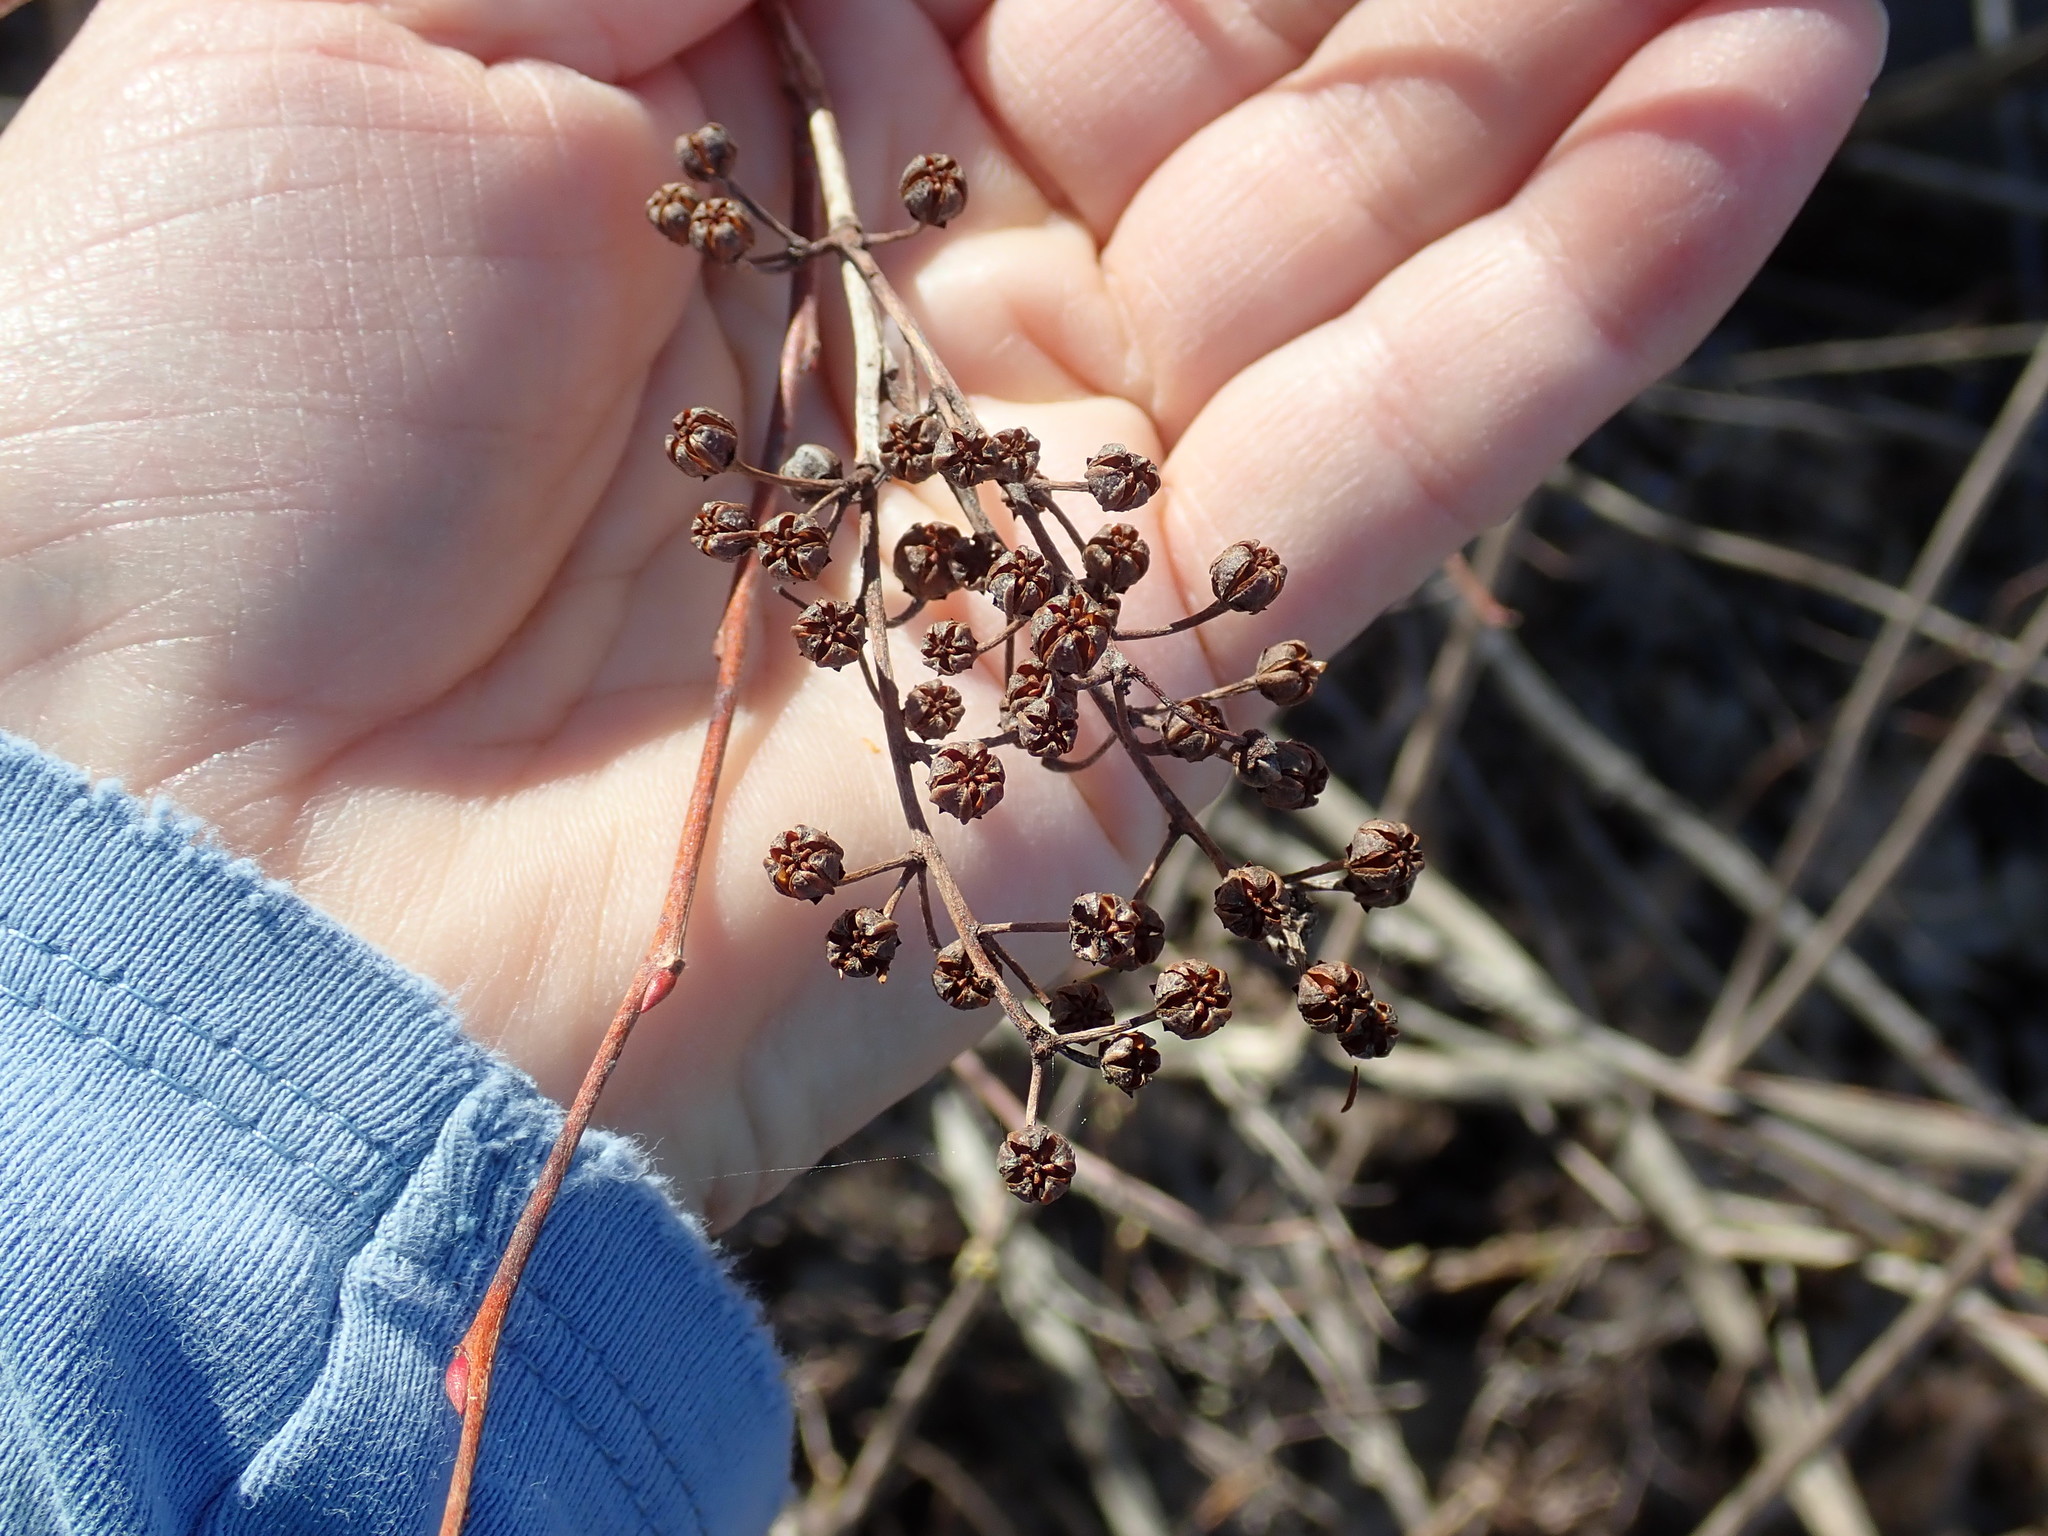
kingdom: Plantae
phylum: Tracheophyta
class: Magnoliopsida
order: Ericales
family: Ericaceae
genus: Lyonia
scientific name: Lyonia ligustrina
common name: Maleberry
